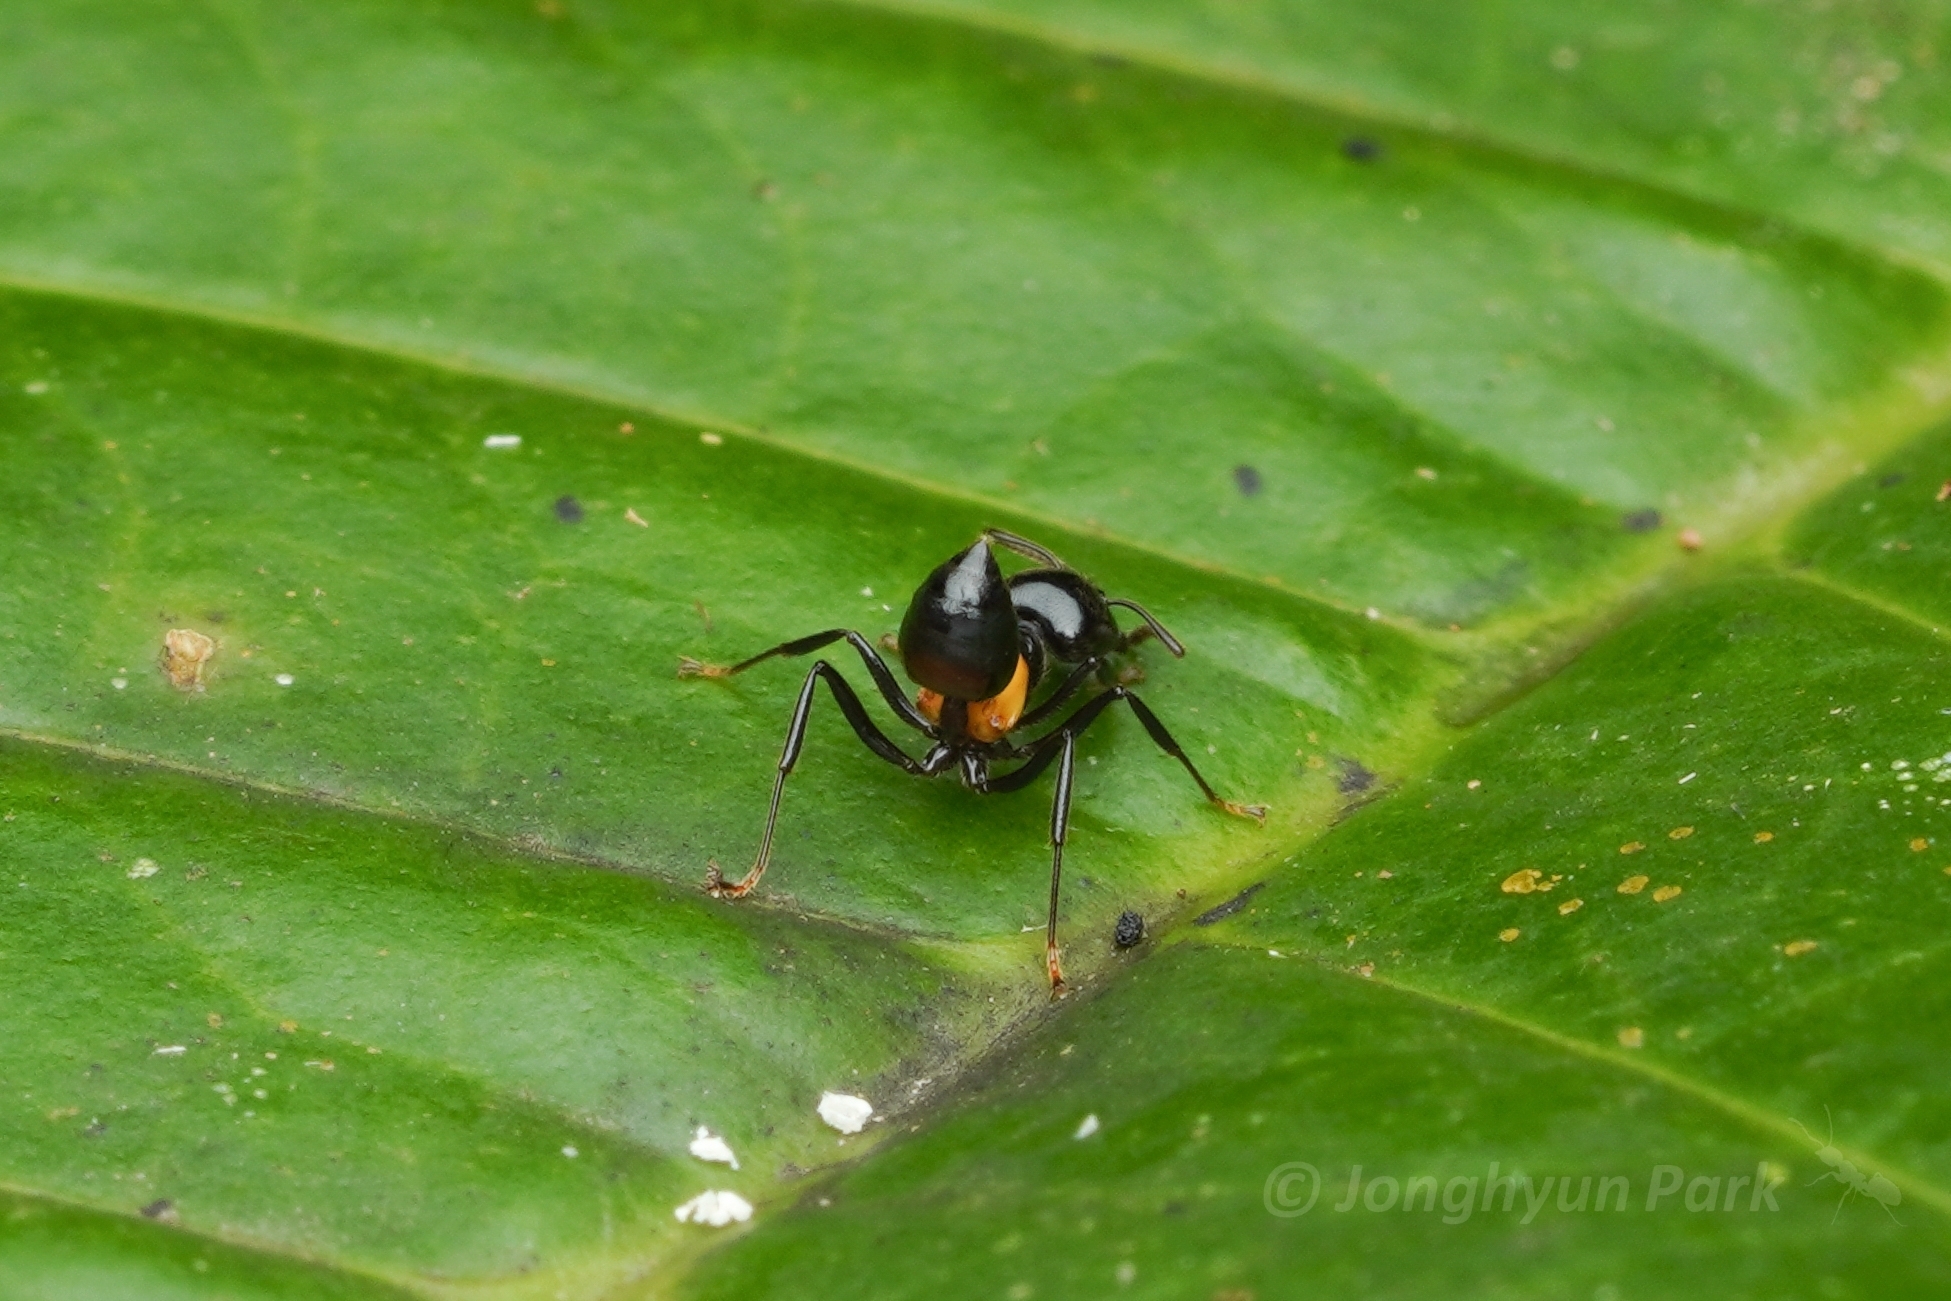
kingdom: Animalia
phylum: Arthropoda
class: Insecta
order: Hymenoptera
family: Formicidae
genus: Crematogaster
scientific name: Crematogaster inflata
